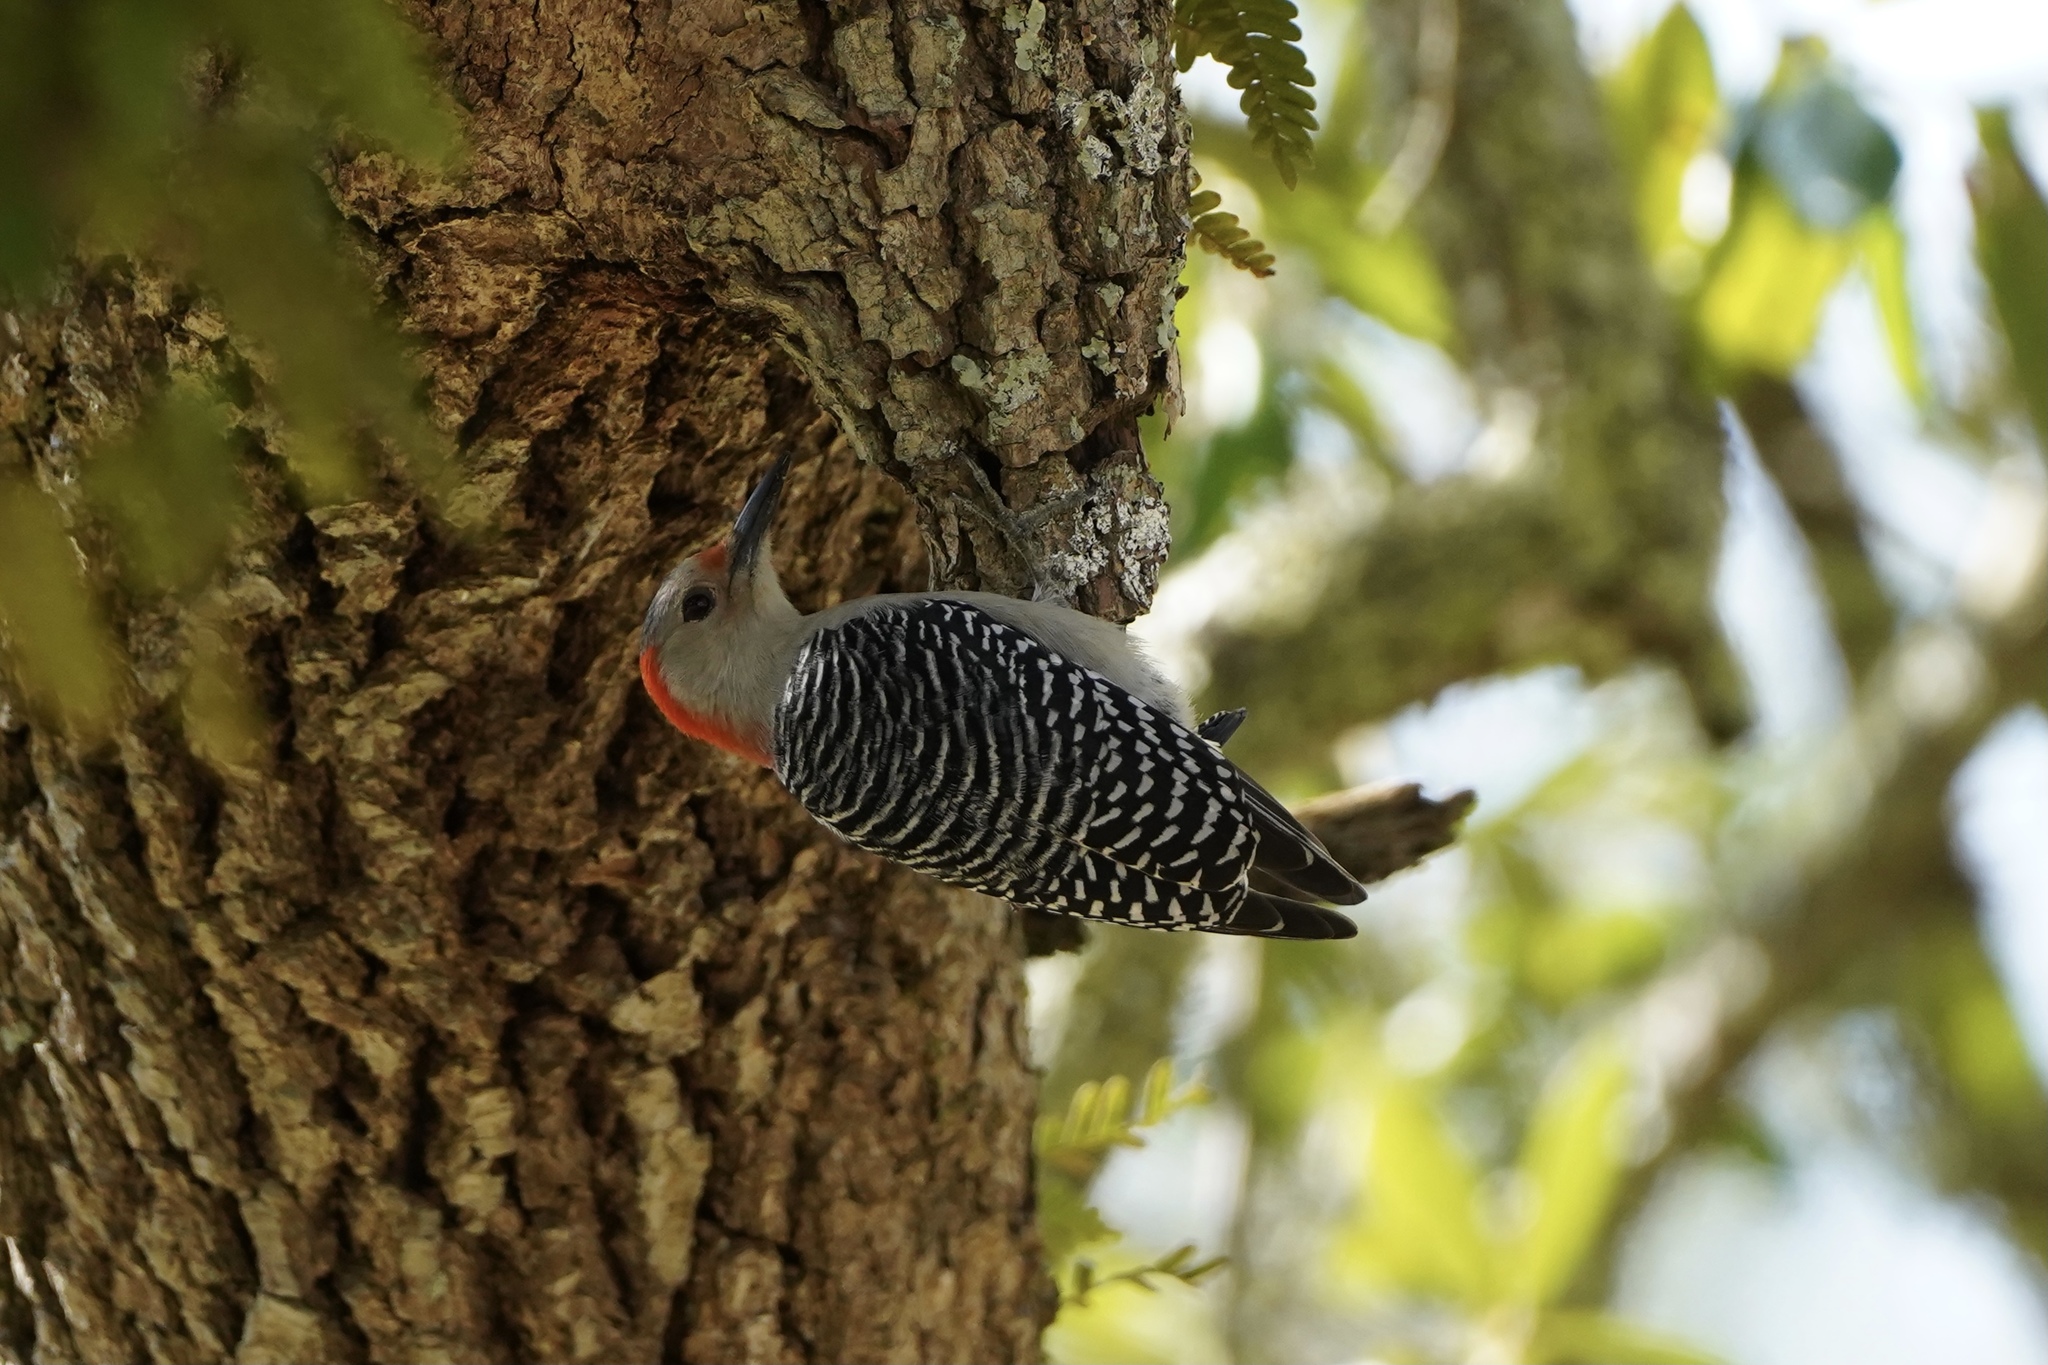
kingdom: Animalia
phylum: Chordata
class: Aves
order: Piciformes
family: Picidae
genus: Melanerpes
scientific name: Melanerpes carolinus
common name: Red-bellied woodpecker
